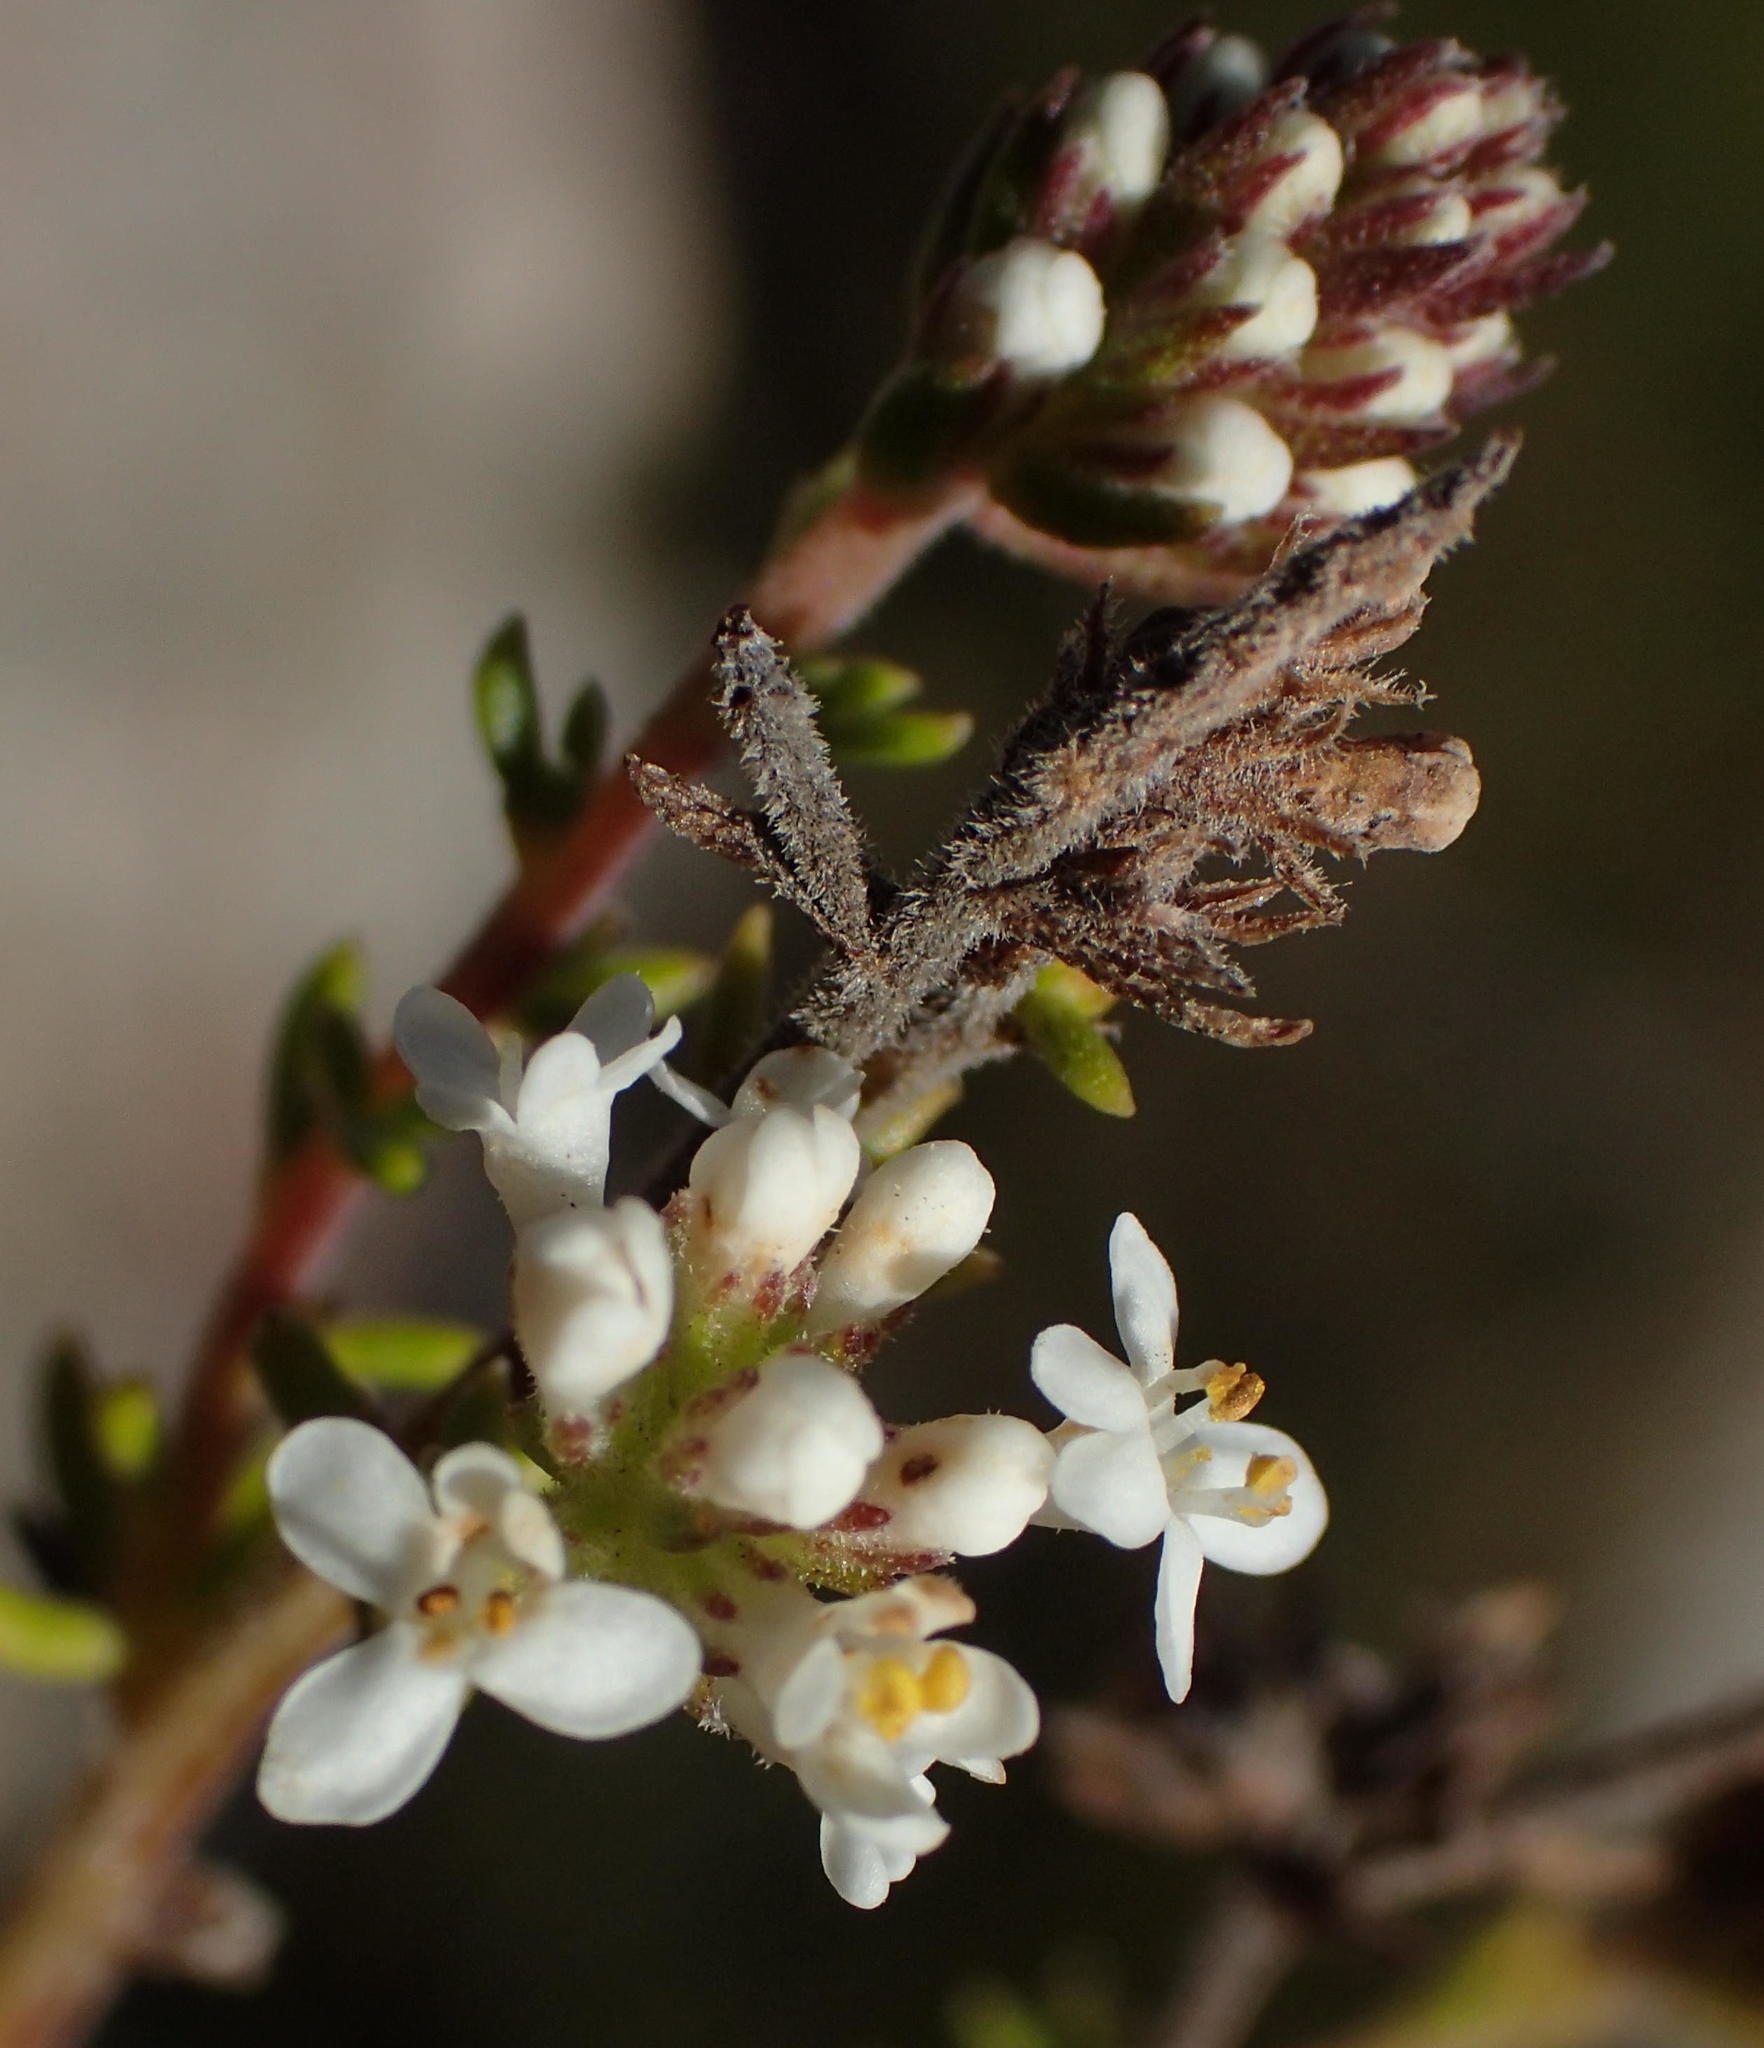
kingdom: Plantae
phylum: Tracheophyta
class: Magnoliopsida
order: Lamiales
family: Scrophulariaceae
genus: Selago
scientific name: Selago karooica
